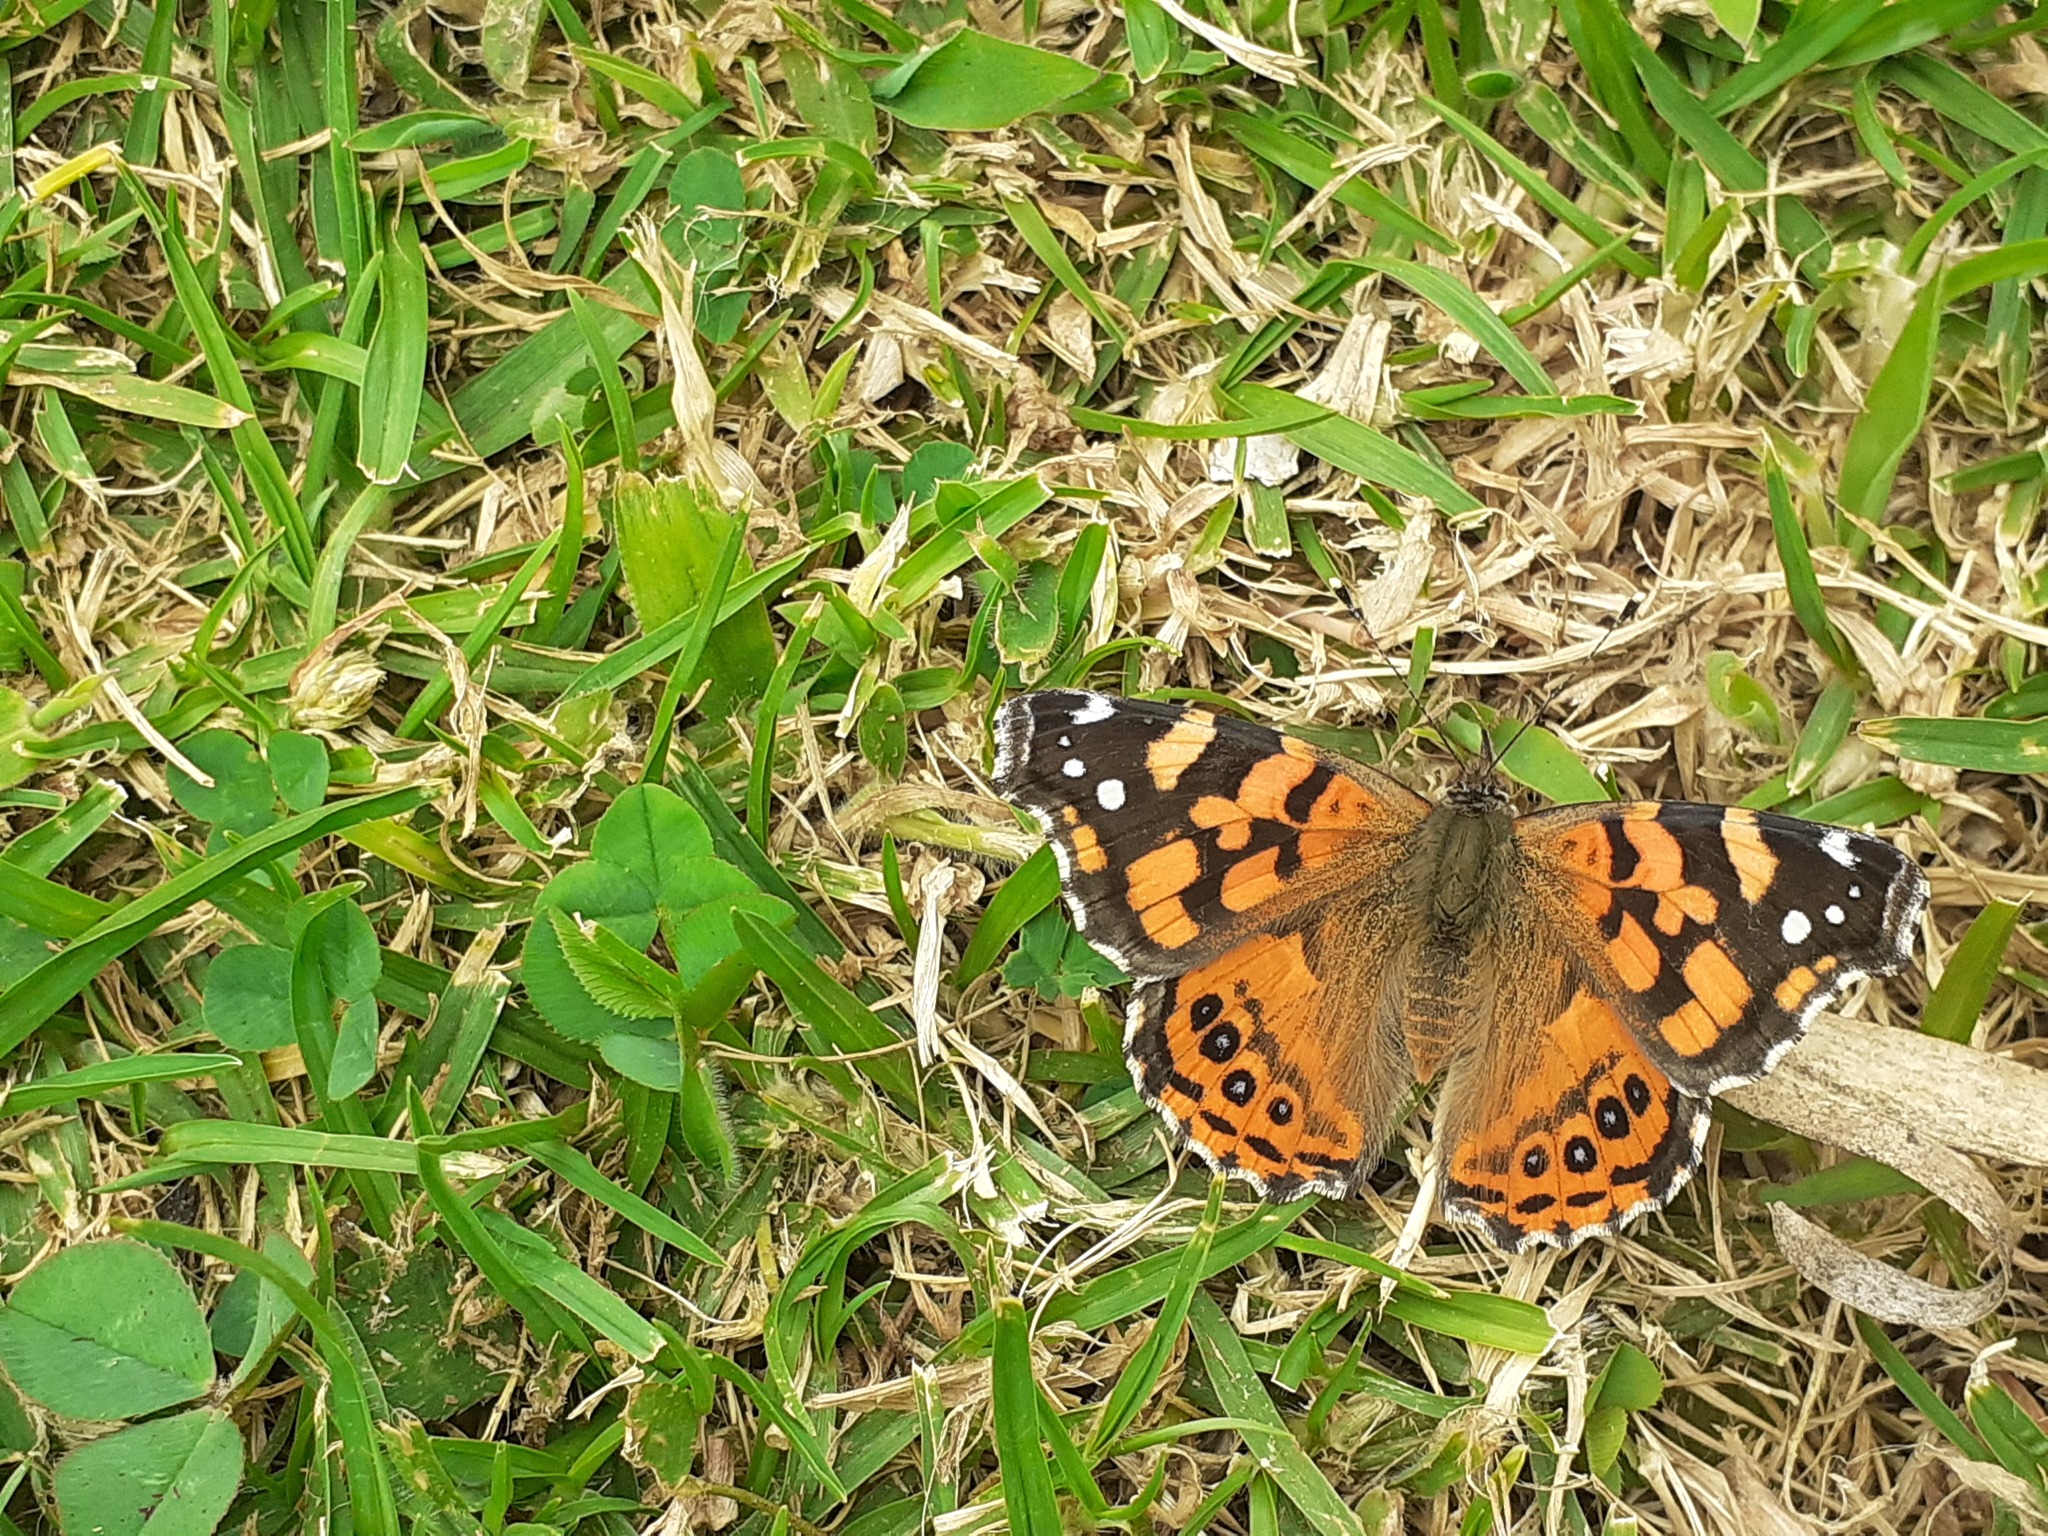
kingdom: Animalia
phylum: Arthropoda
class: Insecta
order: Lepidoptera
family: Nymphalidae
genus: Vanessa
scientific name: Vanessa carye
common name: Subtropical lady
